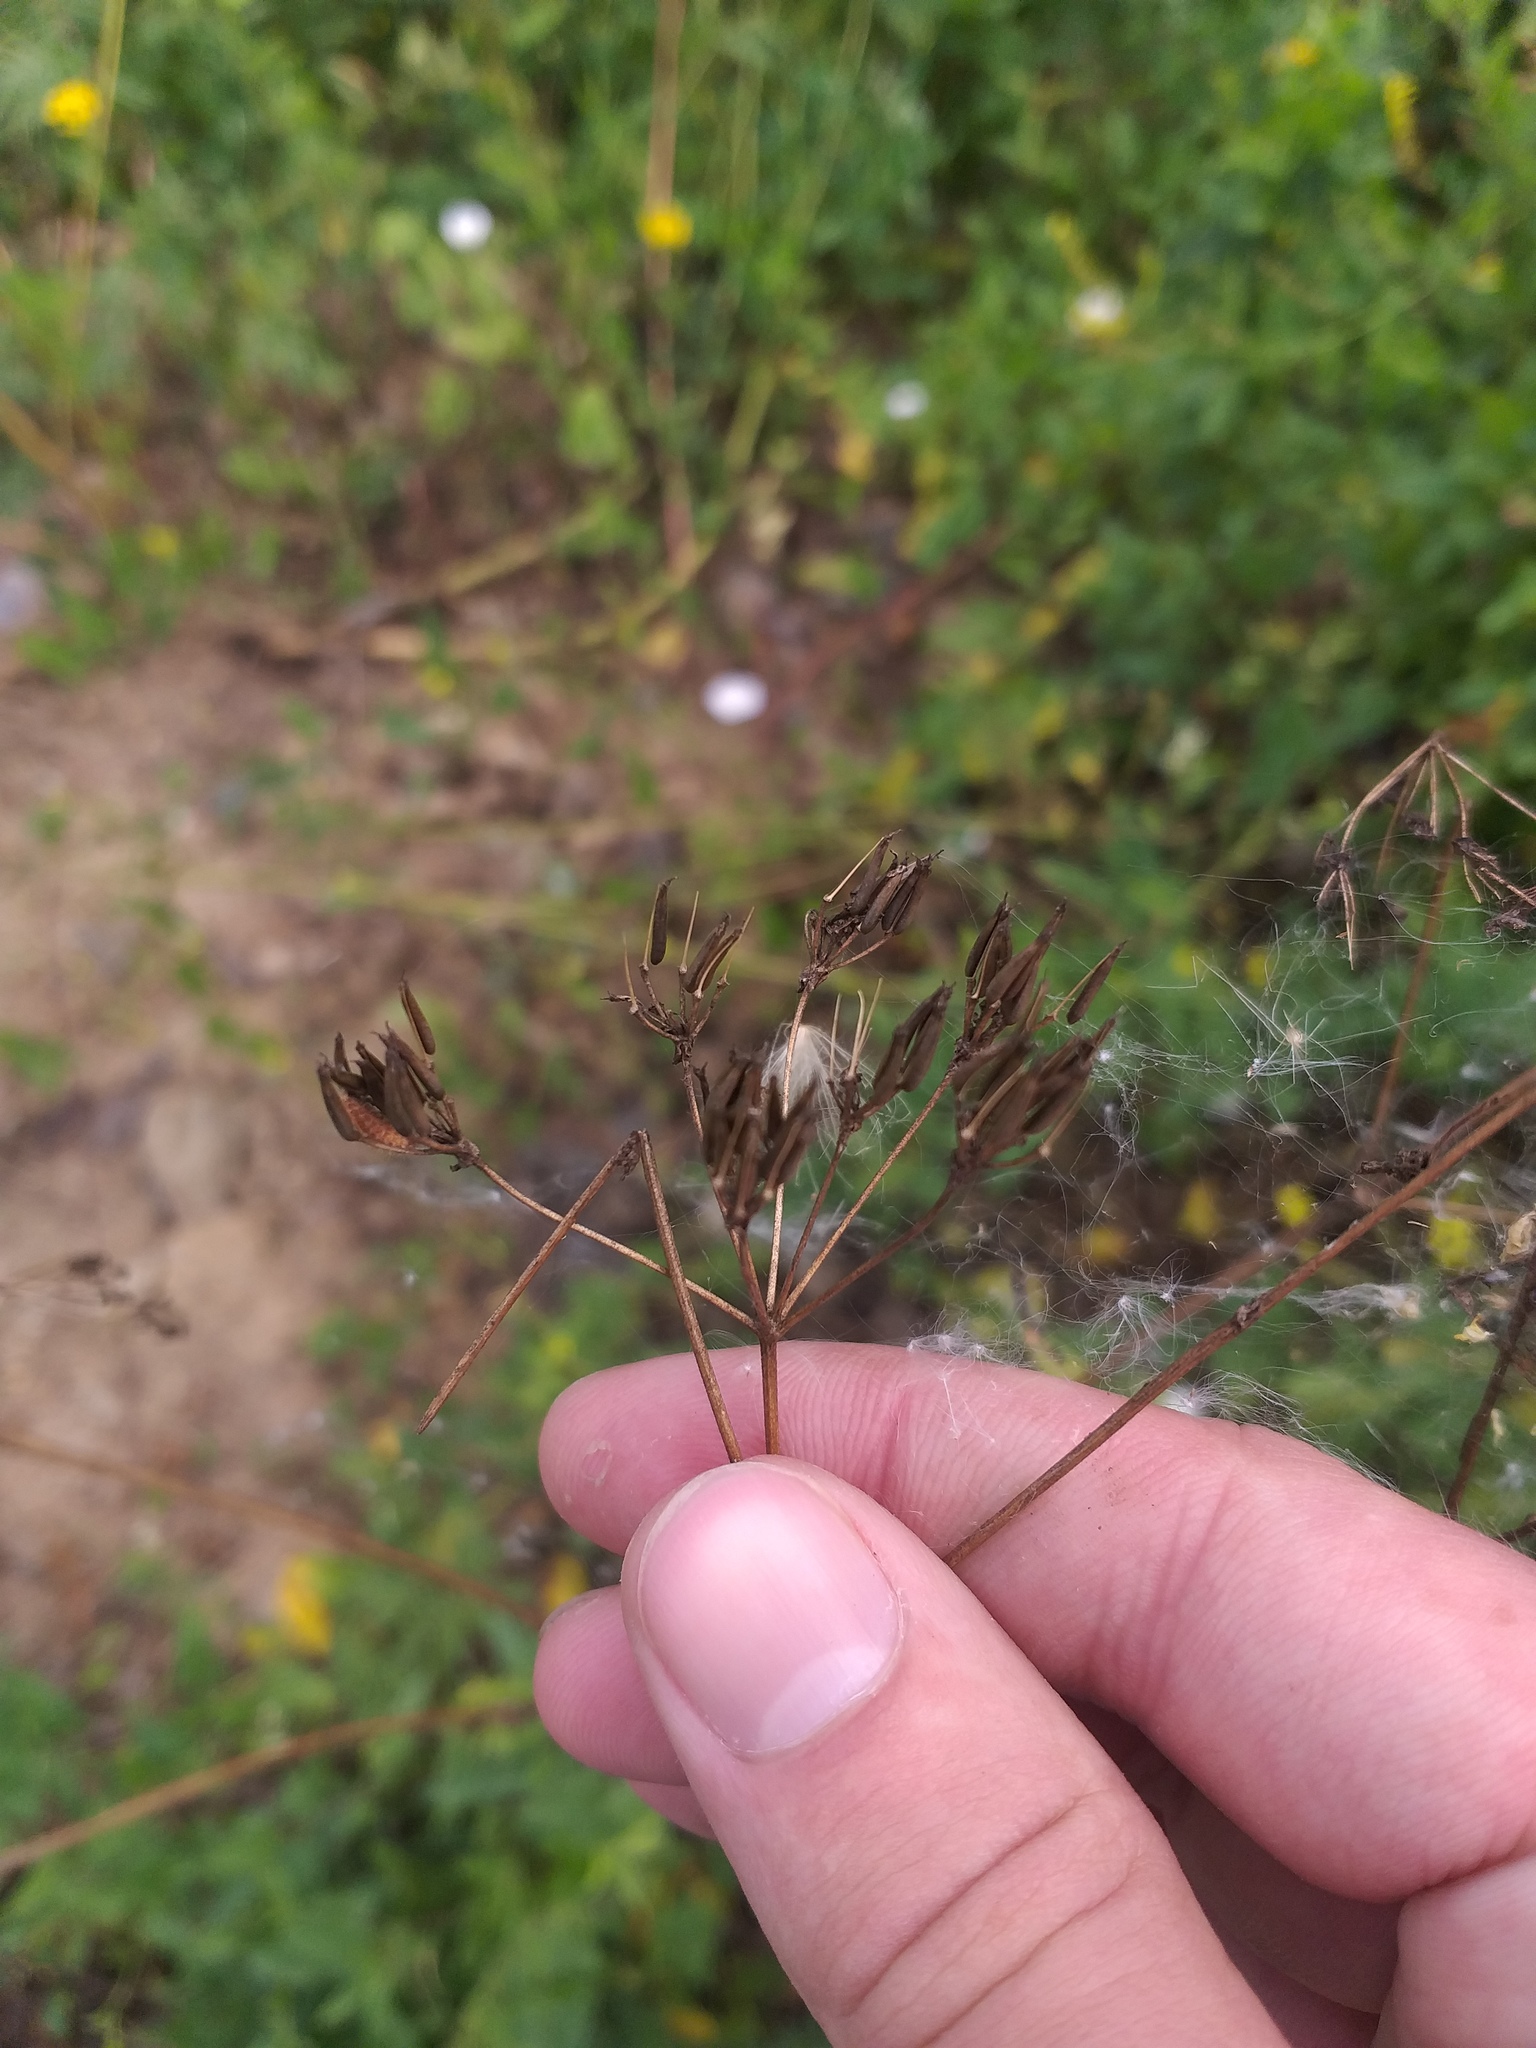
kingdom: Plantae
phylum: Tracheophyta
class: Magnoliopsida
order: Apiales
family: Apiaceae
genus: Anthriscus
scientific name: Anthriscus sylvestris
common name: Cow parsley
